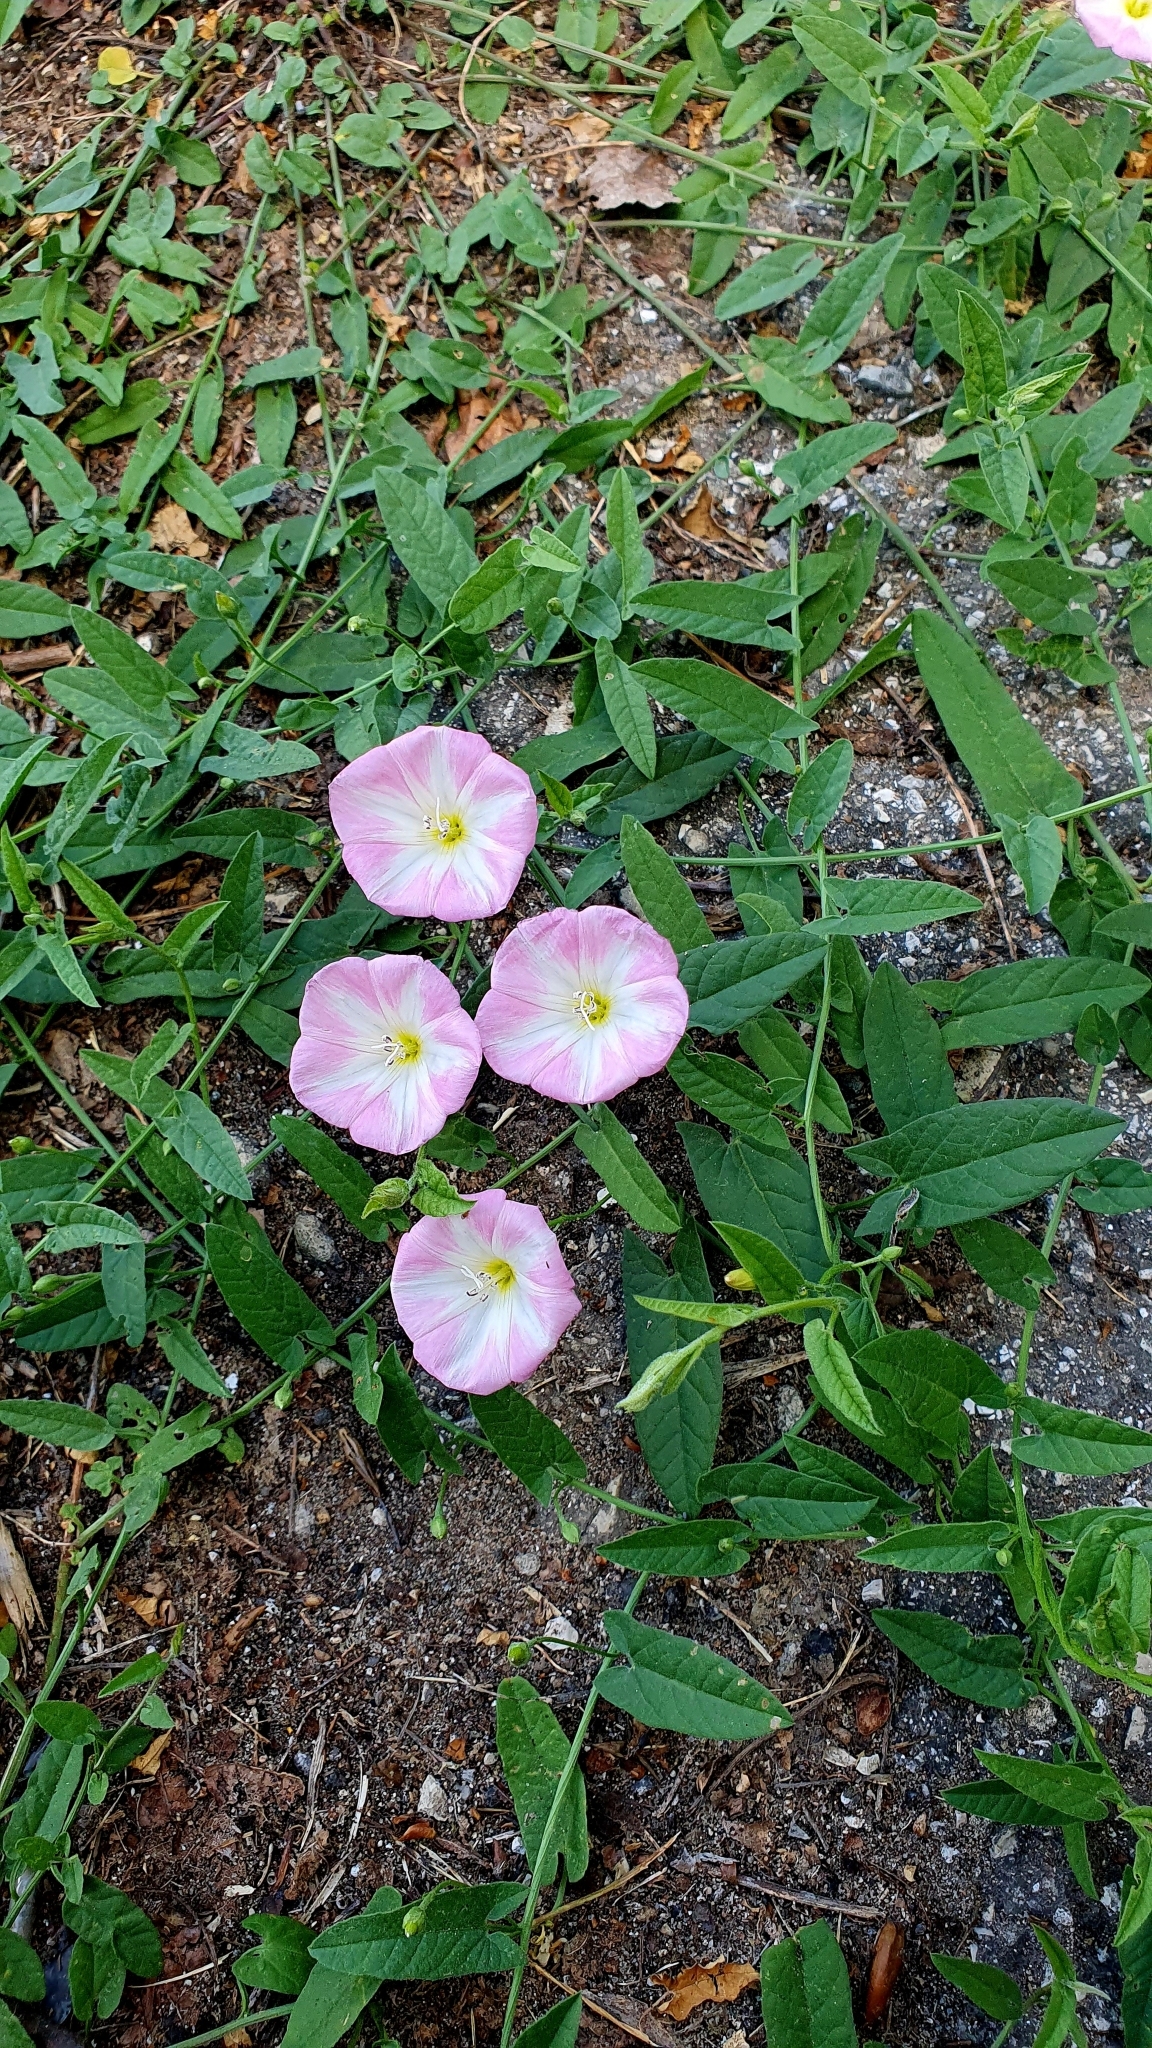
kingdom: Plantae
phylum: Tracheophyta
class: Magnoliopsida
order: Solanales
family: Convolvulaceae
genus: Convolvulus
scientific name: Convolvulus arvensis
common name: Field bindweed
